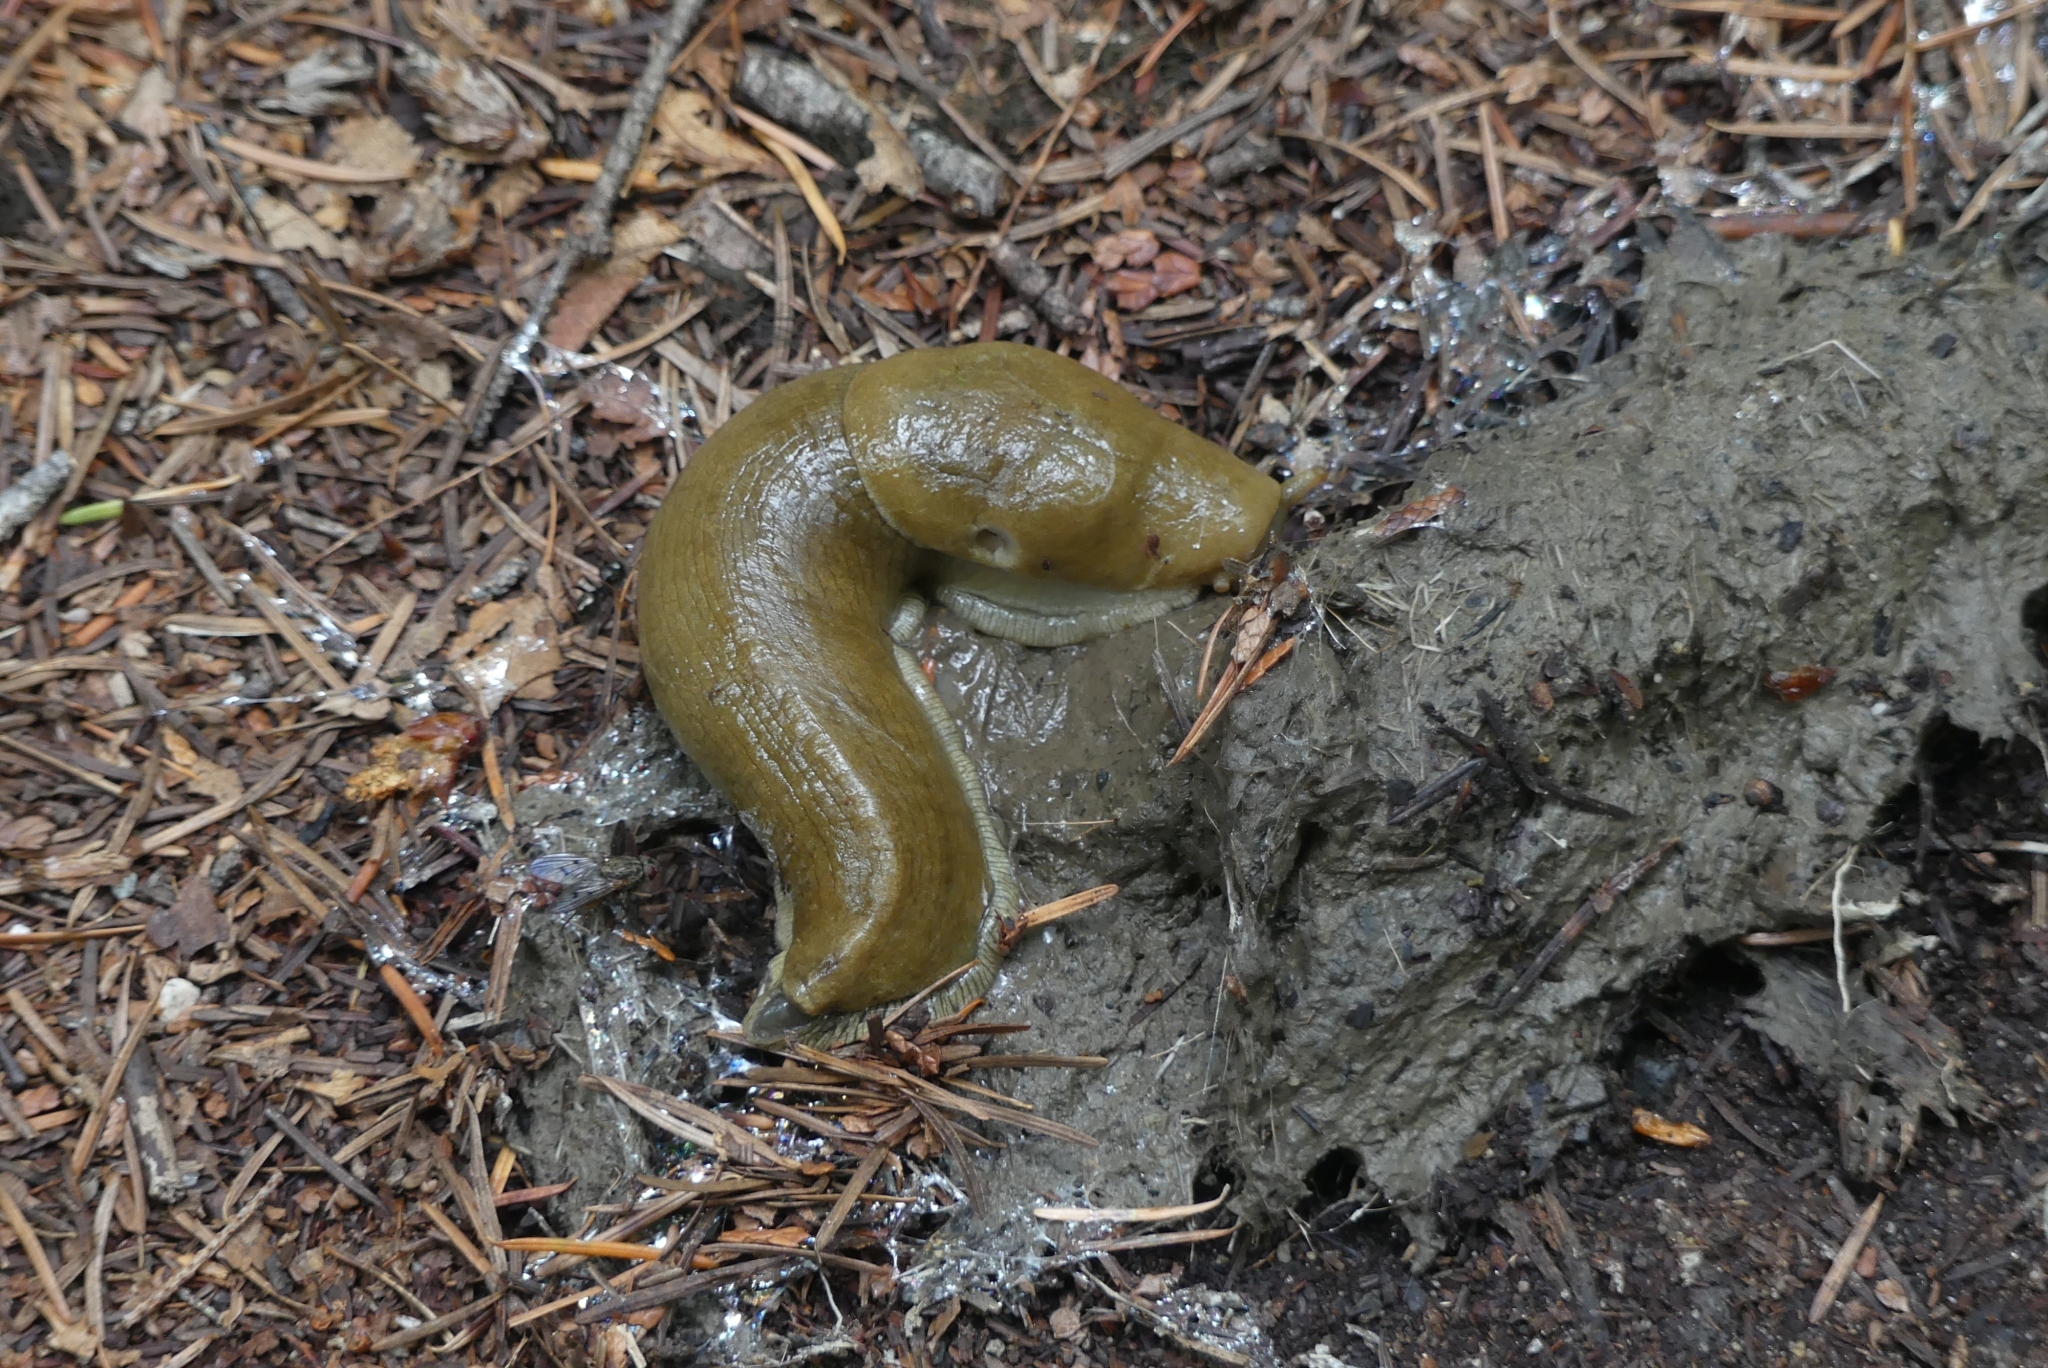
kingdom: Animalia
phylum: Mollusca
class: Gastropoda
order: Stylommatophora
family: Ariolimacidae
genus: Ariolimax
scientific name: Ariolimax columbianus
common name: Pacific banana slug
